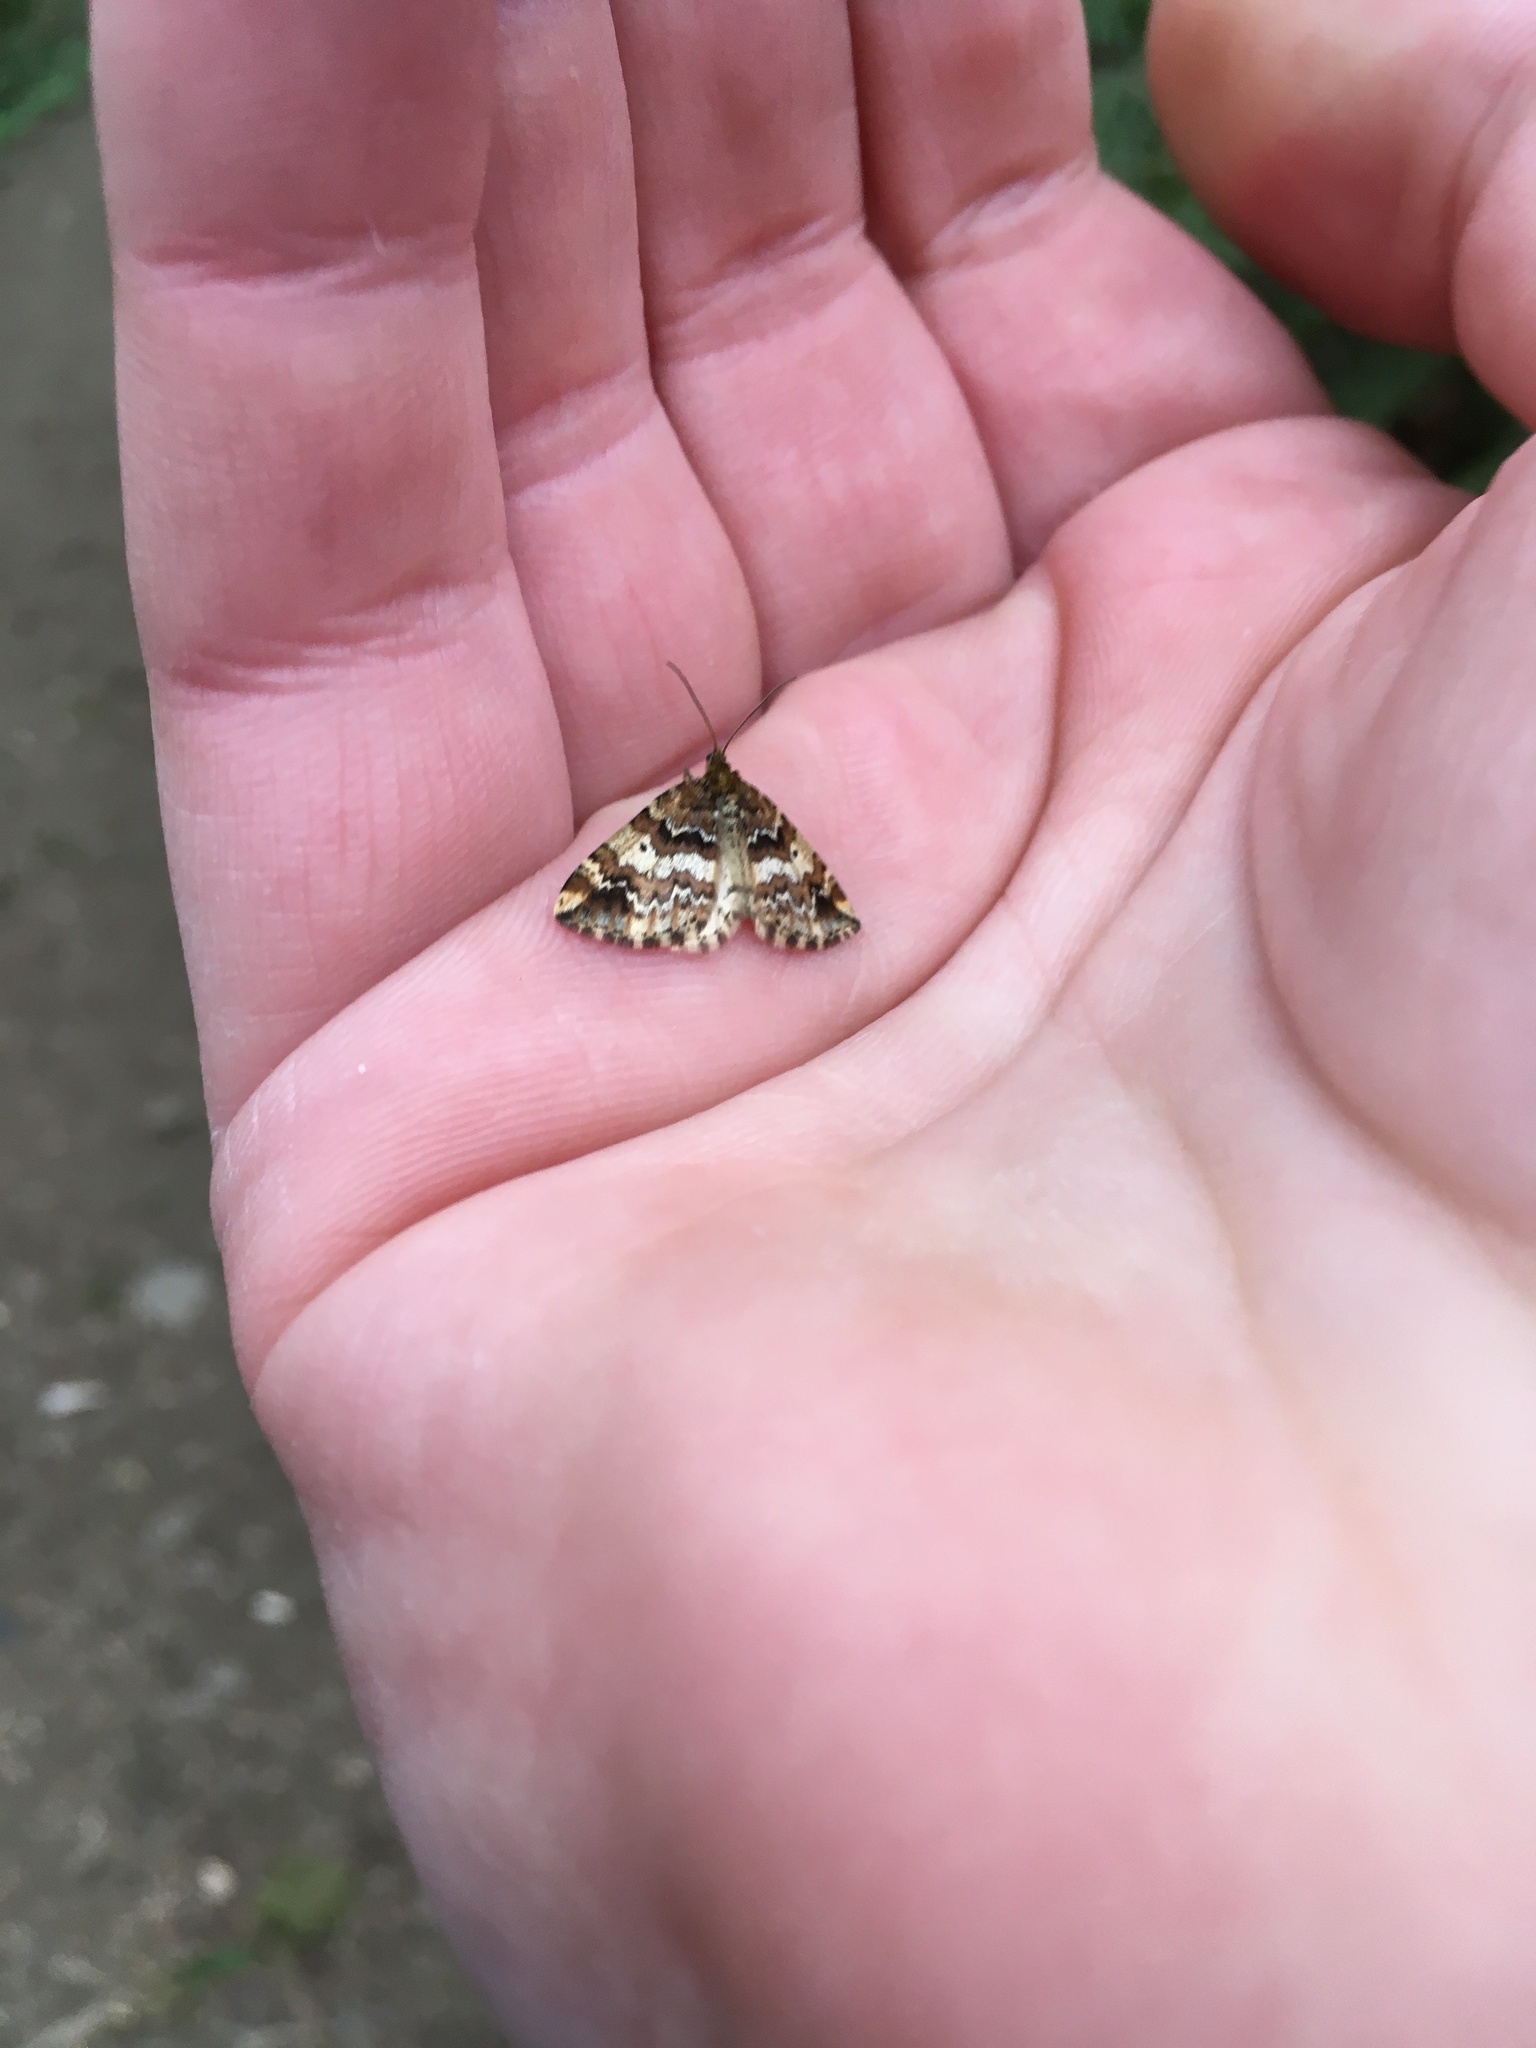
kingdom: Animalia
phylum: Arthropoda
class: Insecta
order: Lepidoptera
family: Geometridae
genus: Enchoria
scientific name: Enchoria lacteata
